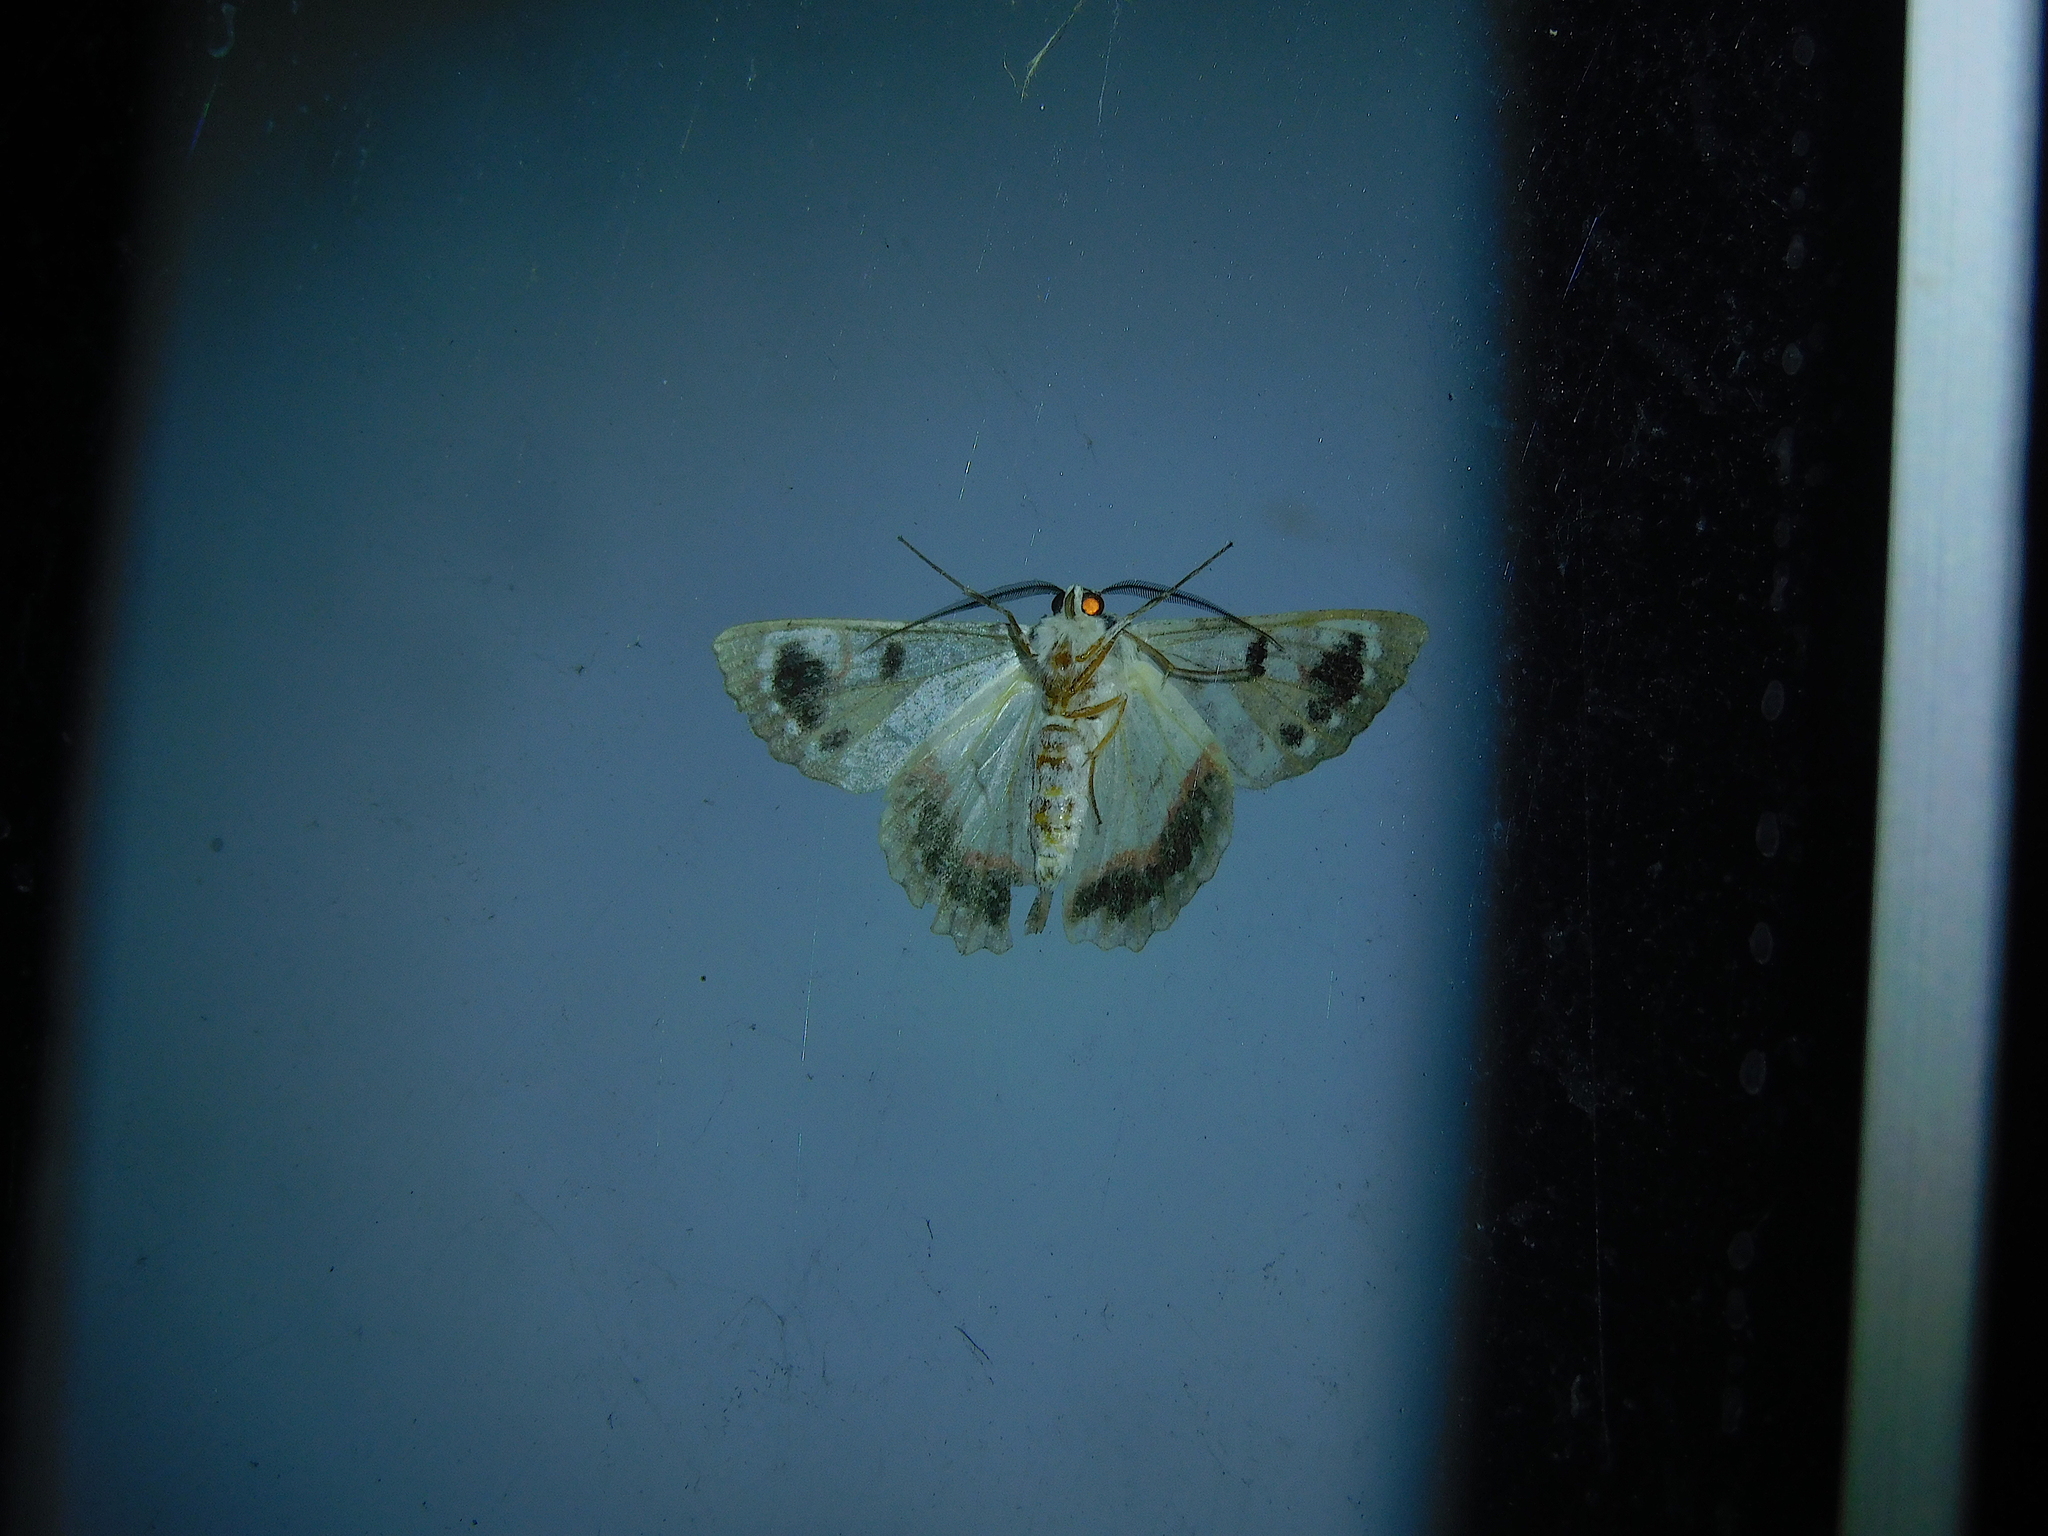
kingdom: Animalia
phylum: Arthropoda
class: Insecta
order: Lepidoptera
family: Geometridae
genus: Crypsiphona
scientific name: Crypsiphona
